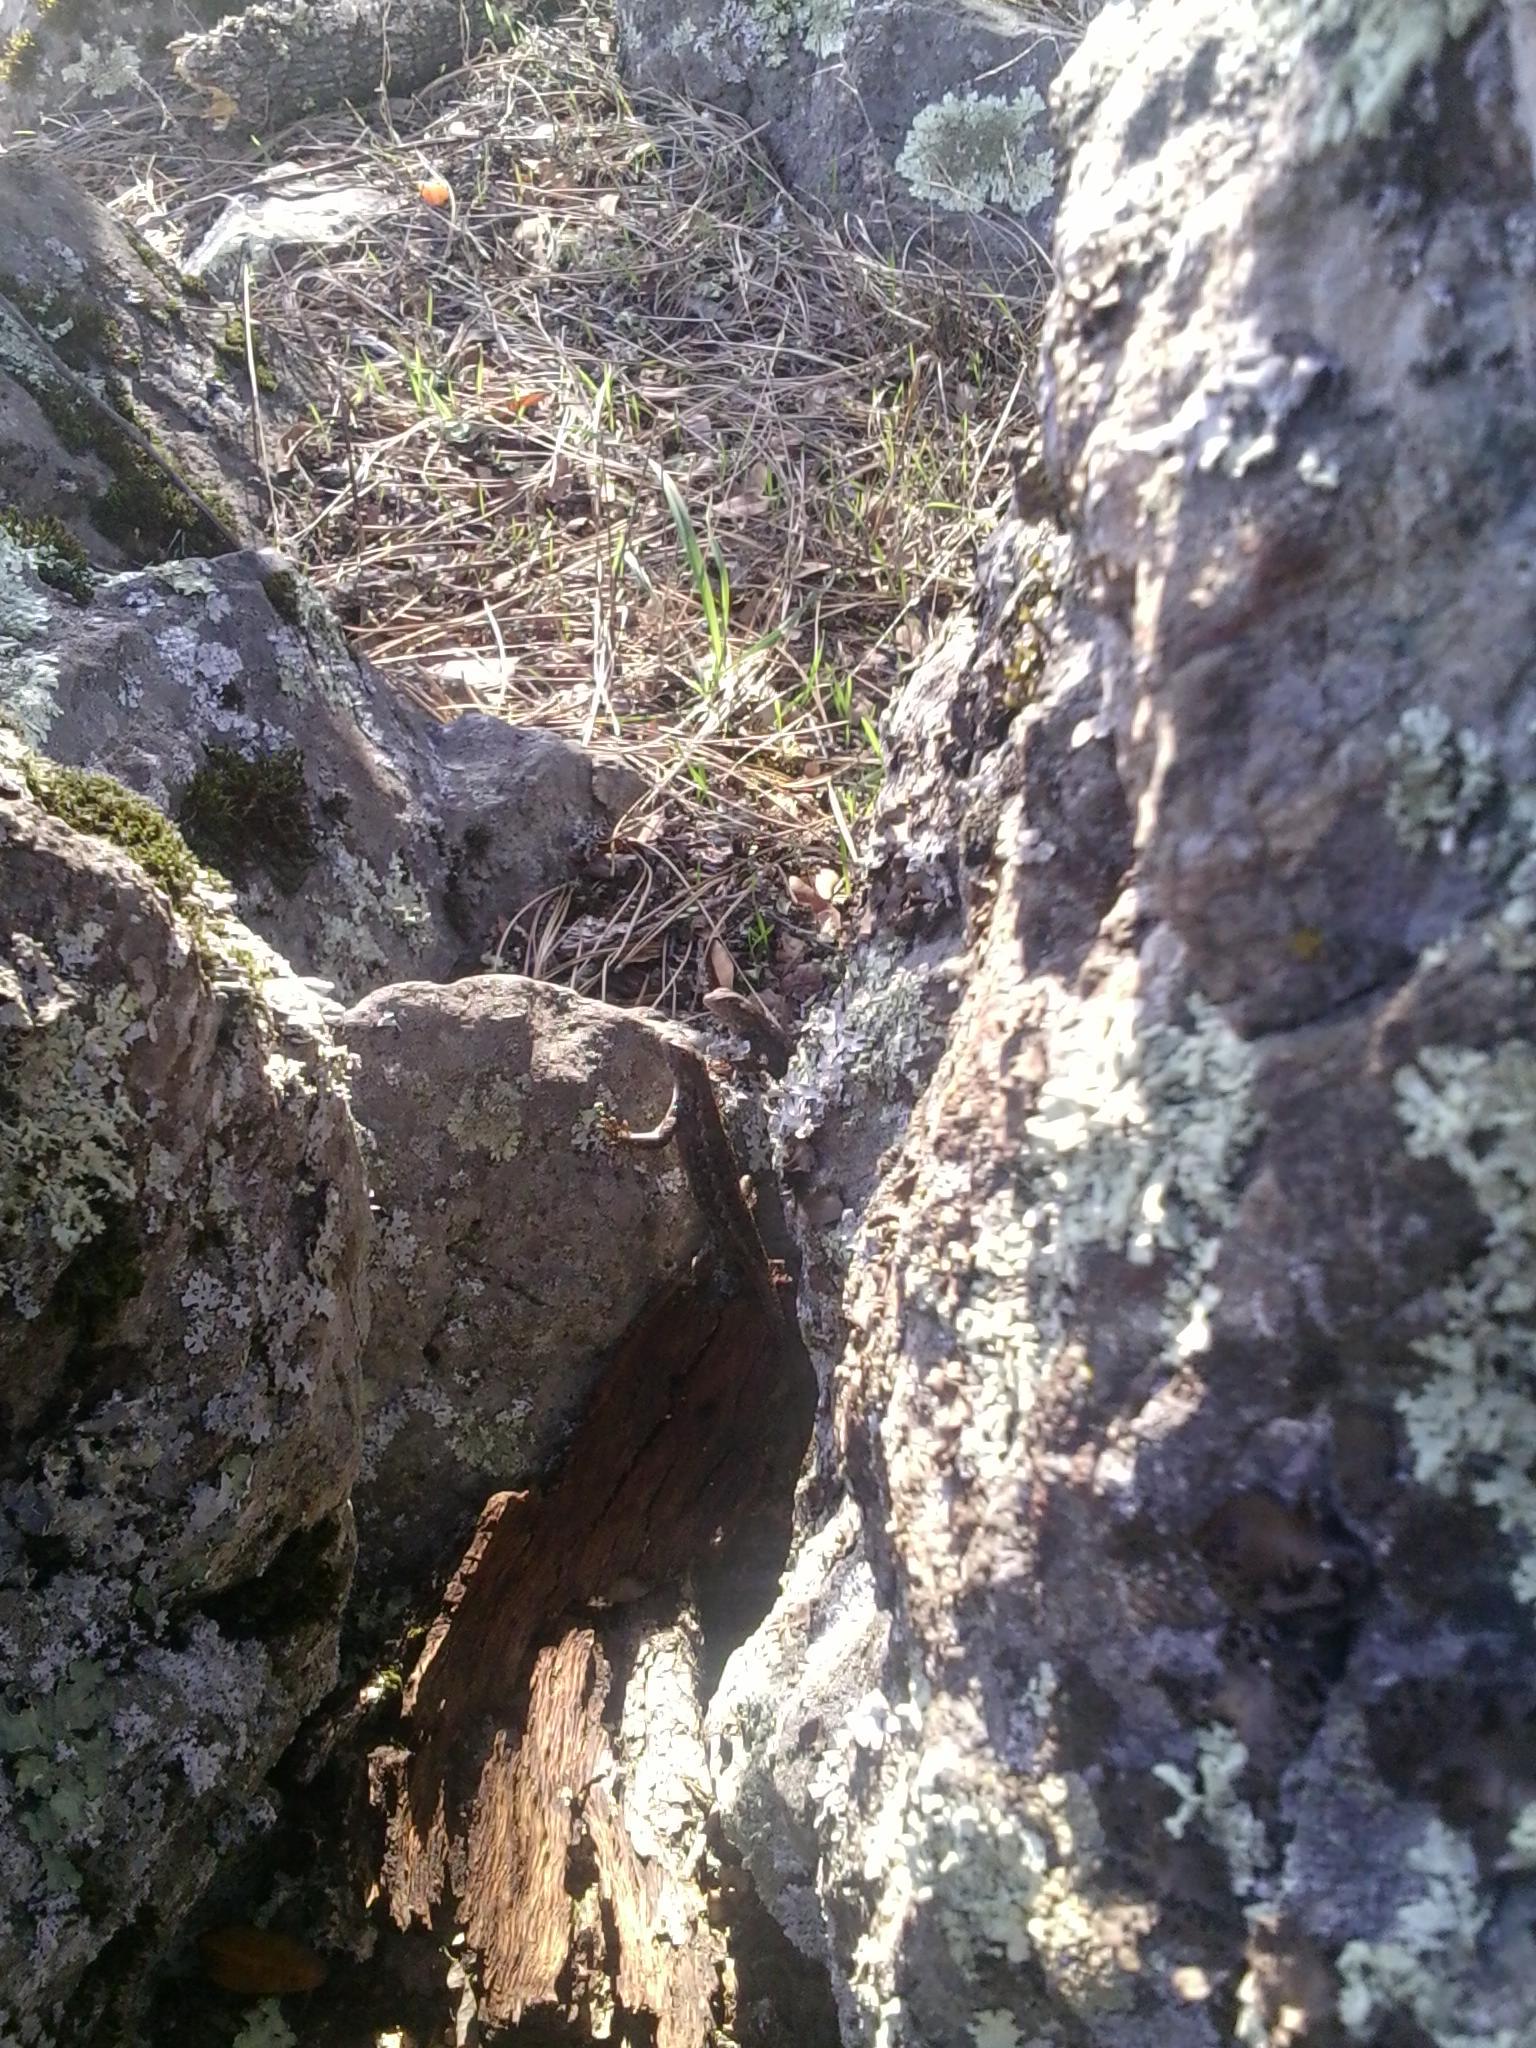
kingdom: Animalia
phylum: Chordata
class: Squamata
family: Phrynosomatidae
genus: Sceloporus
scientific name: Sceloporus occidentalis
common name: Western fence lizard
